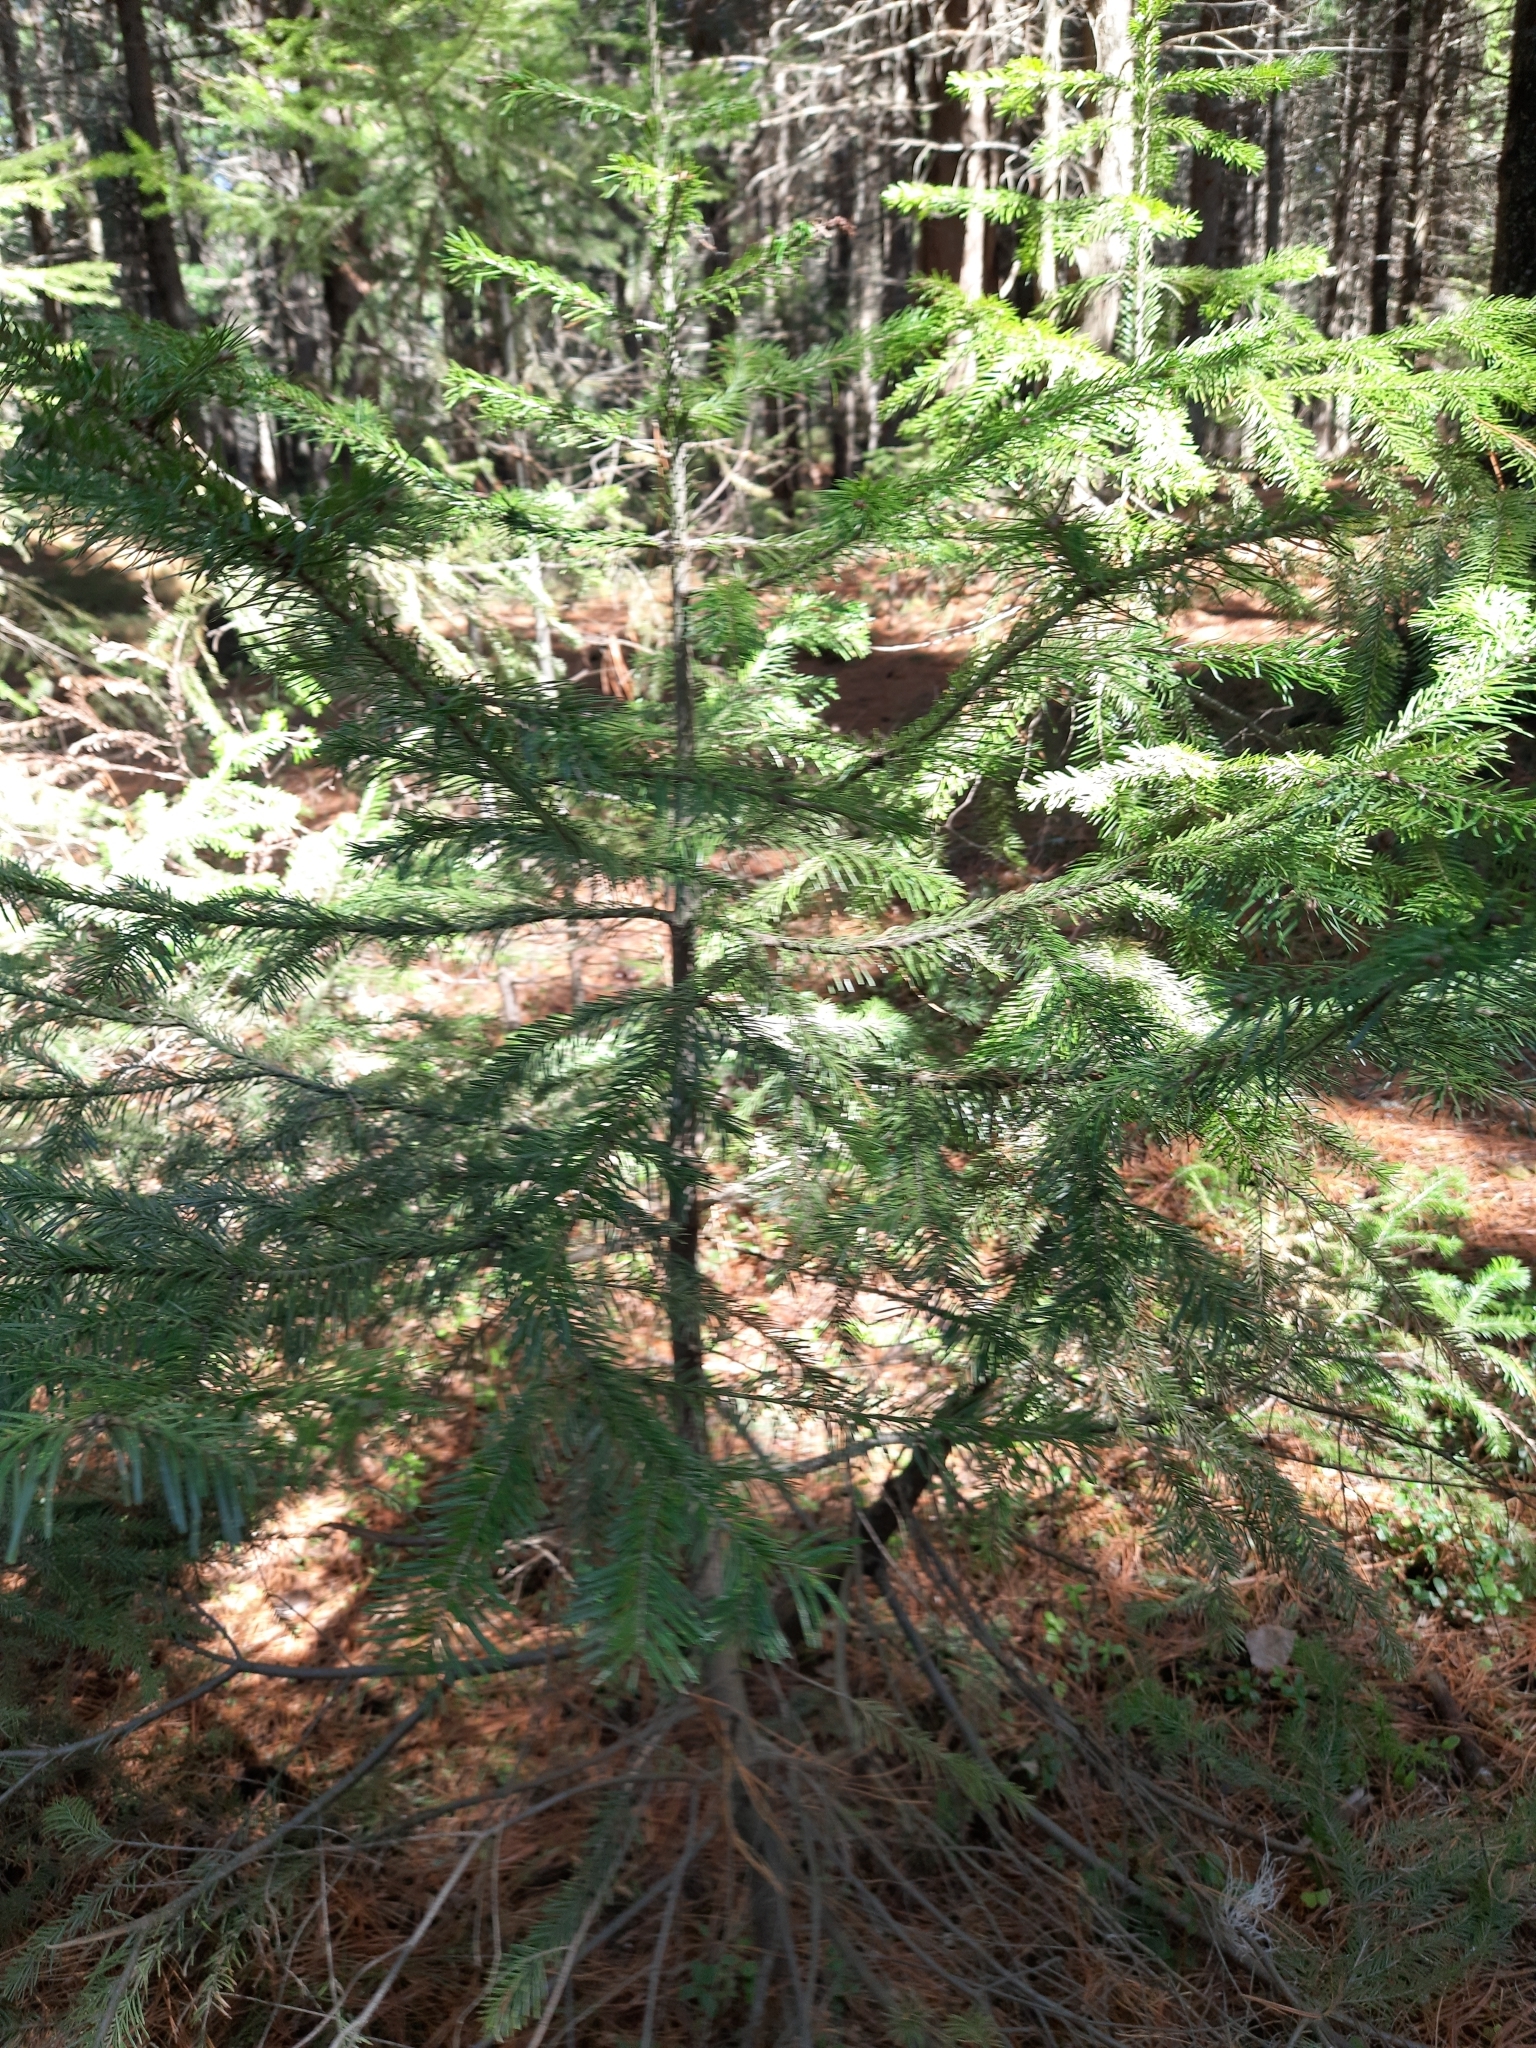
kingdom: Plantae
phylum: Tracheophyta
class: Pinopsida
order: Pinales
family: Pinaceae
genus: Abies
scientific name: Abies sibirica
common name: Siberian fir
